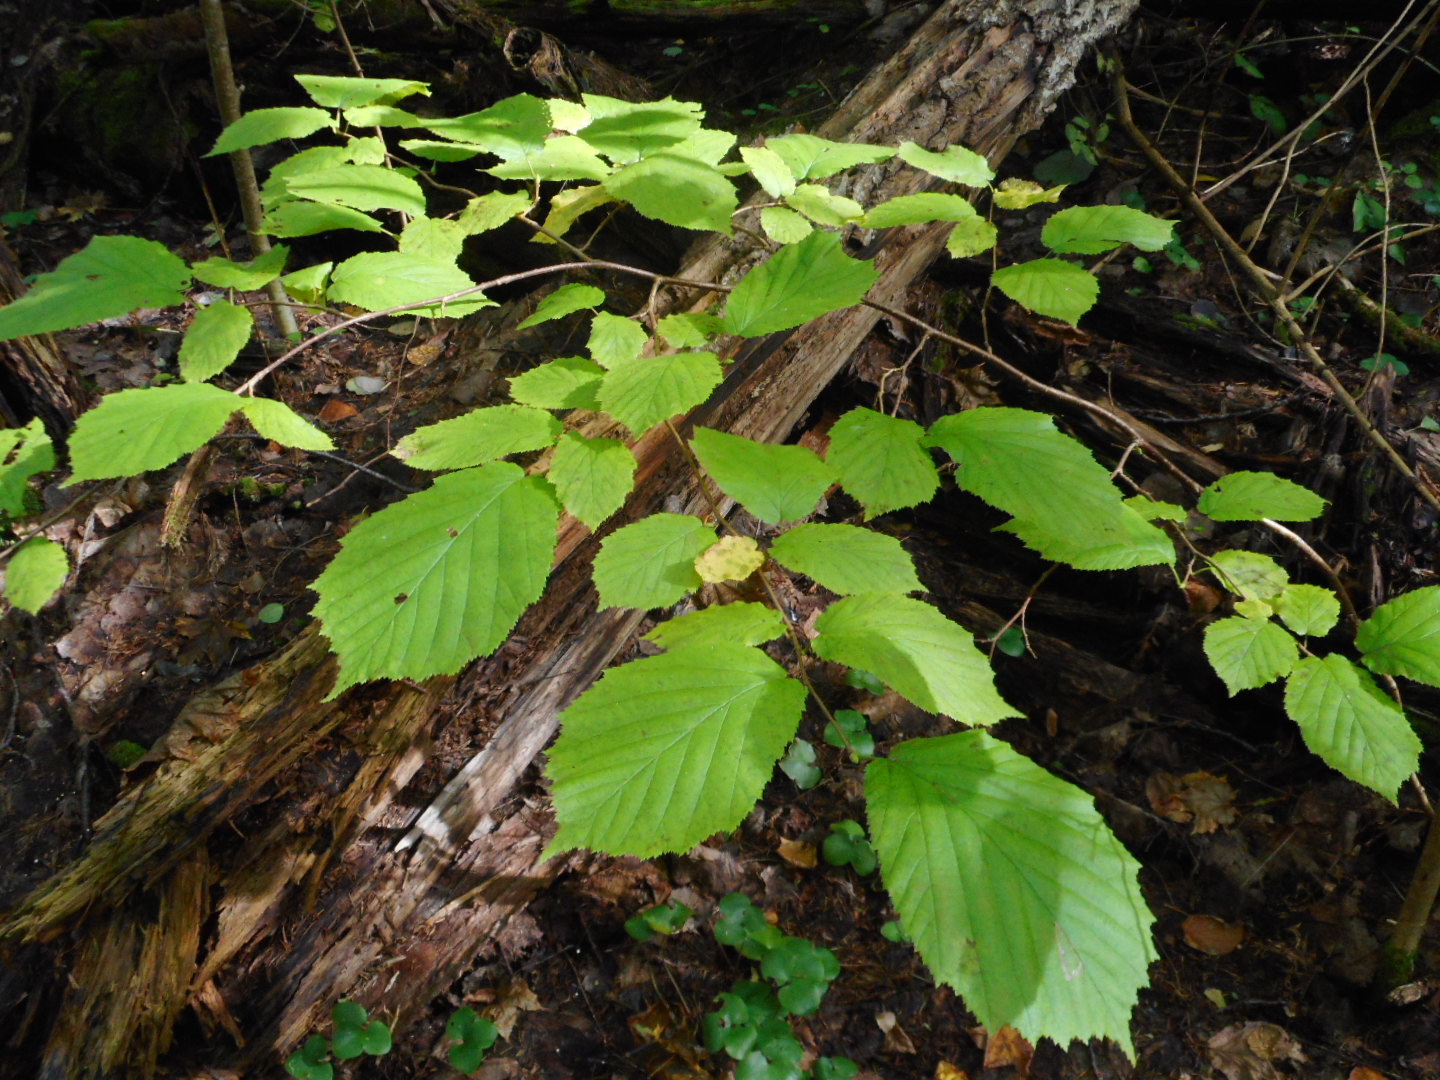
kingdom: Plantae
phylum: Tracheophyta
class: Magnoliopsida
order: Fagales
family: Betulaceae
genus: Corylus
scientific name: Corylus avellana
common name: European hazel
